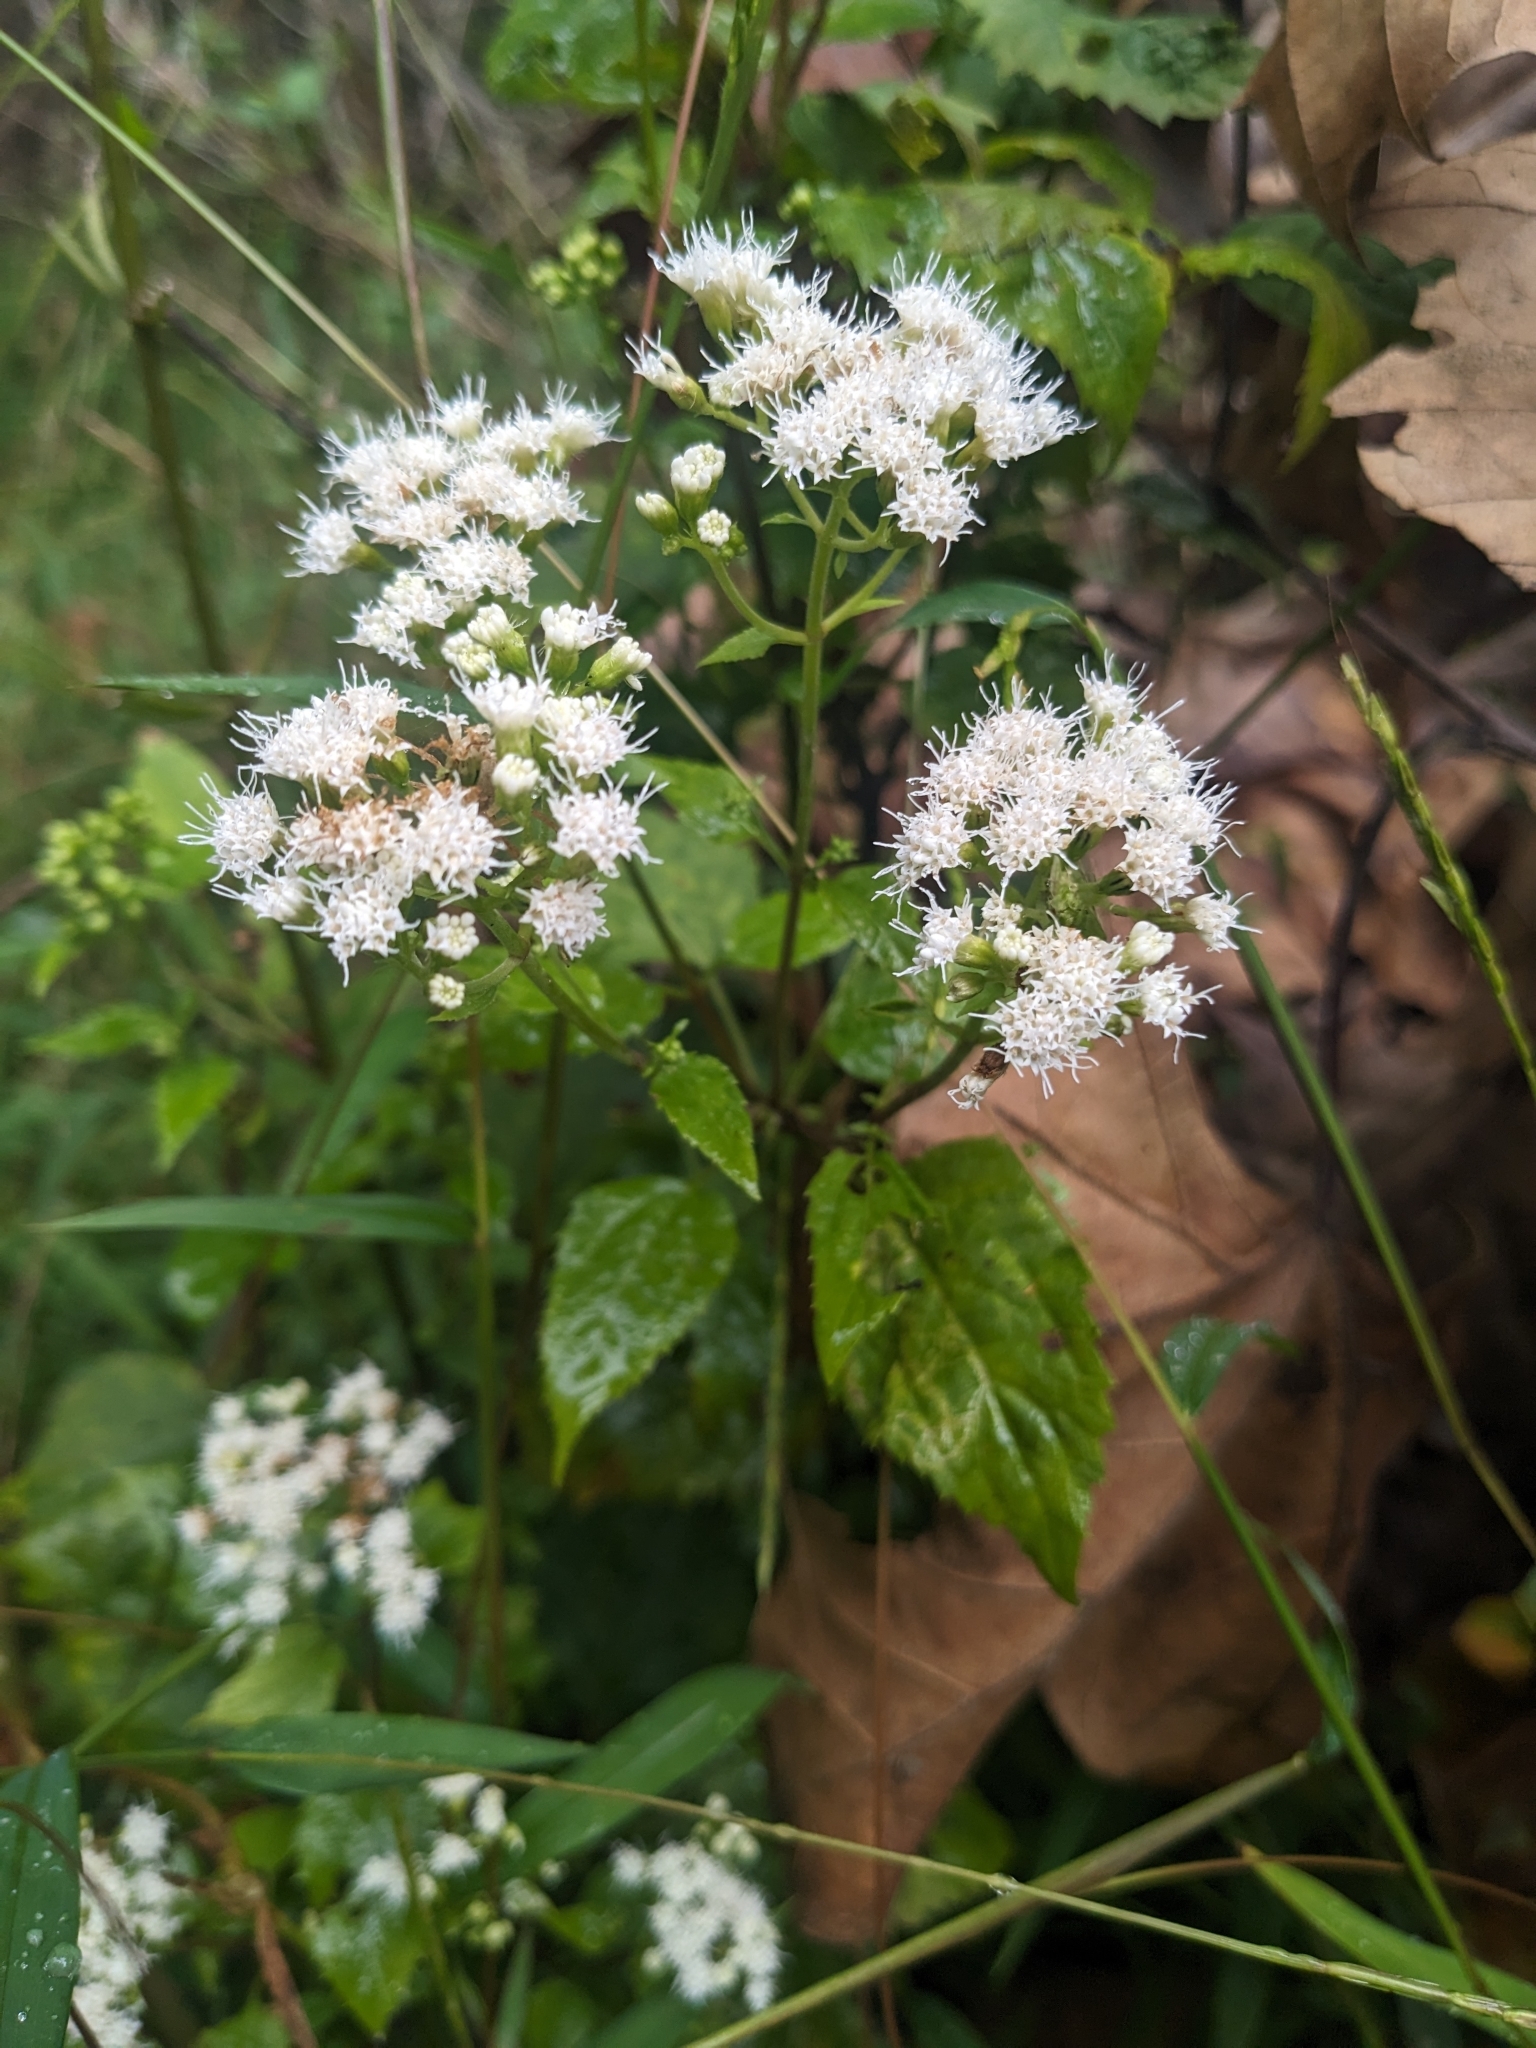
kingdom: Plantae
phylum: Tracheophyta
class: Magnoliopsida
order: Asterales
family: Asteraceae
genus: Ageratina
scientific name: Ageratina altissima
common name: White snakeroot
